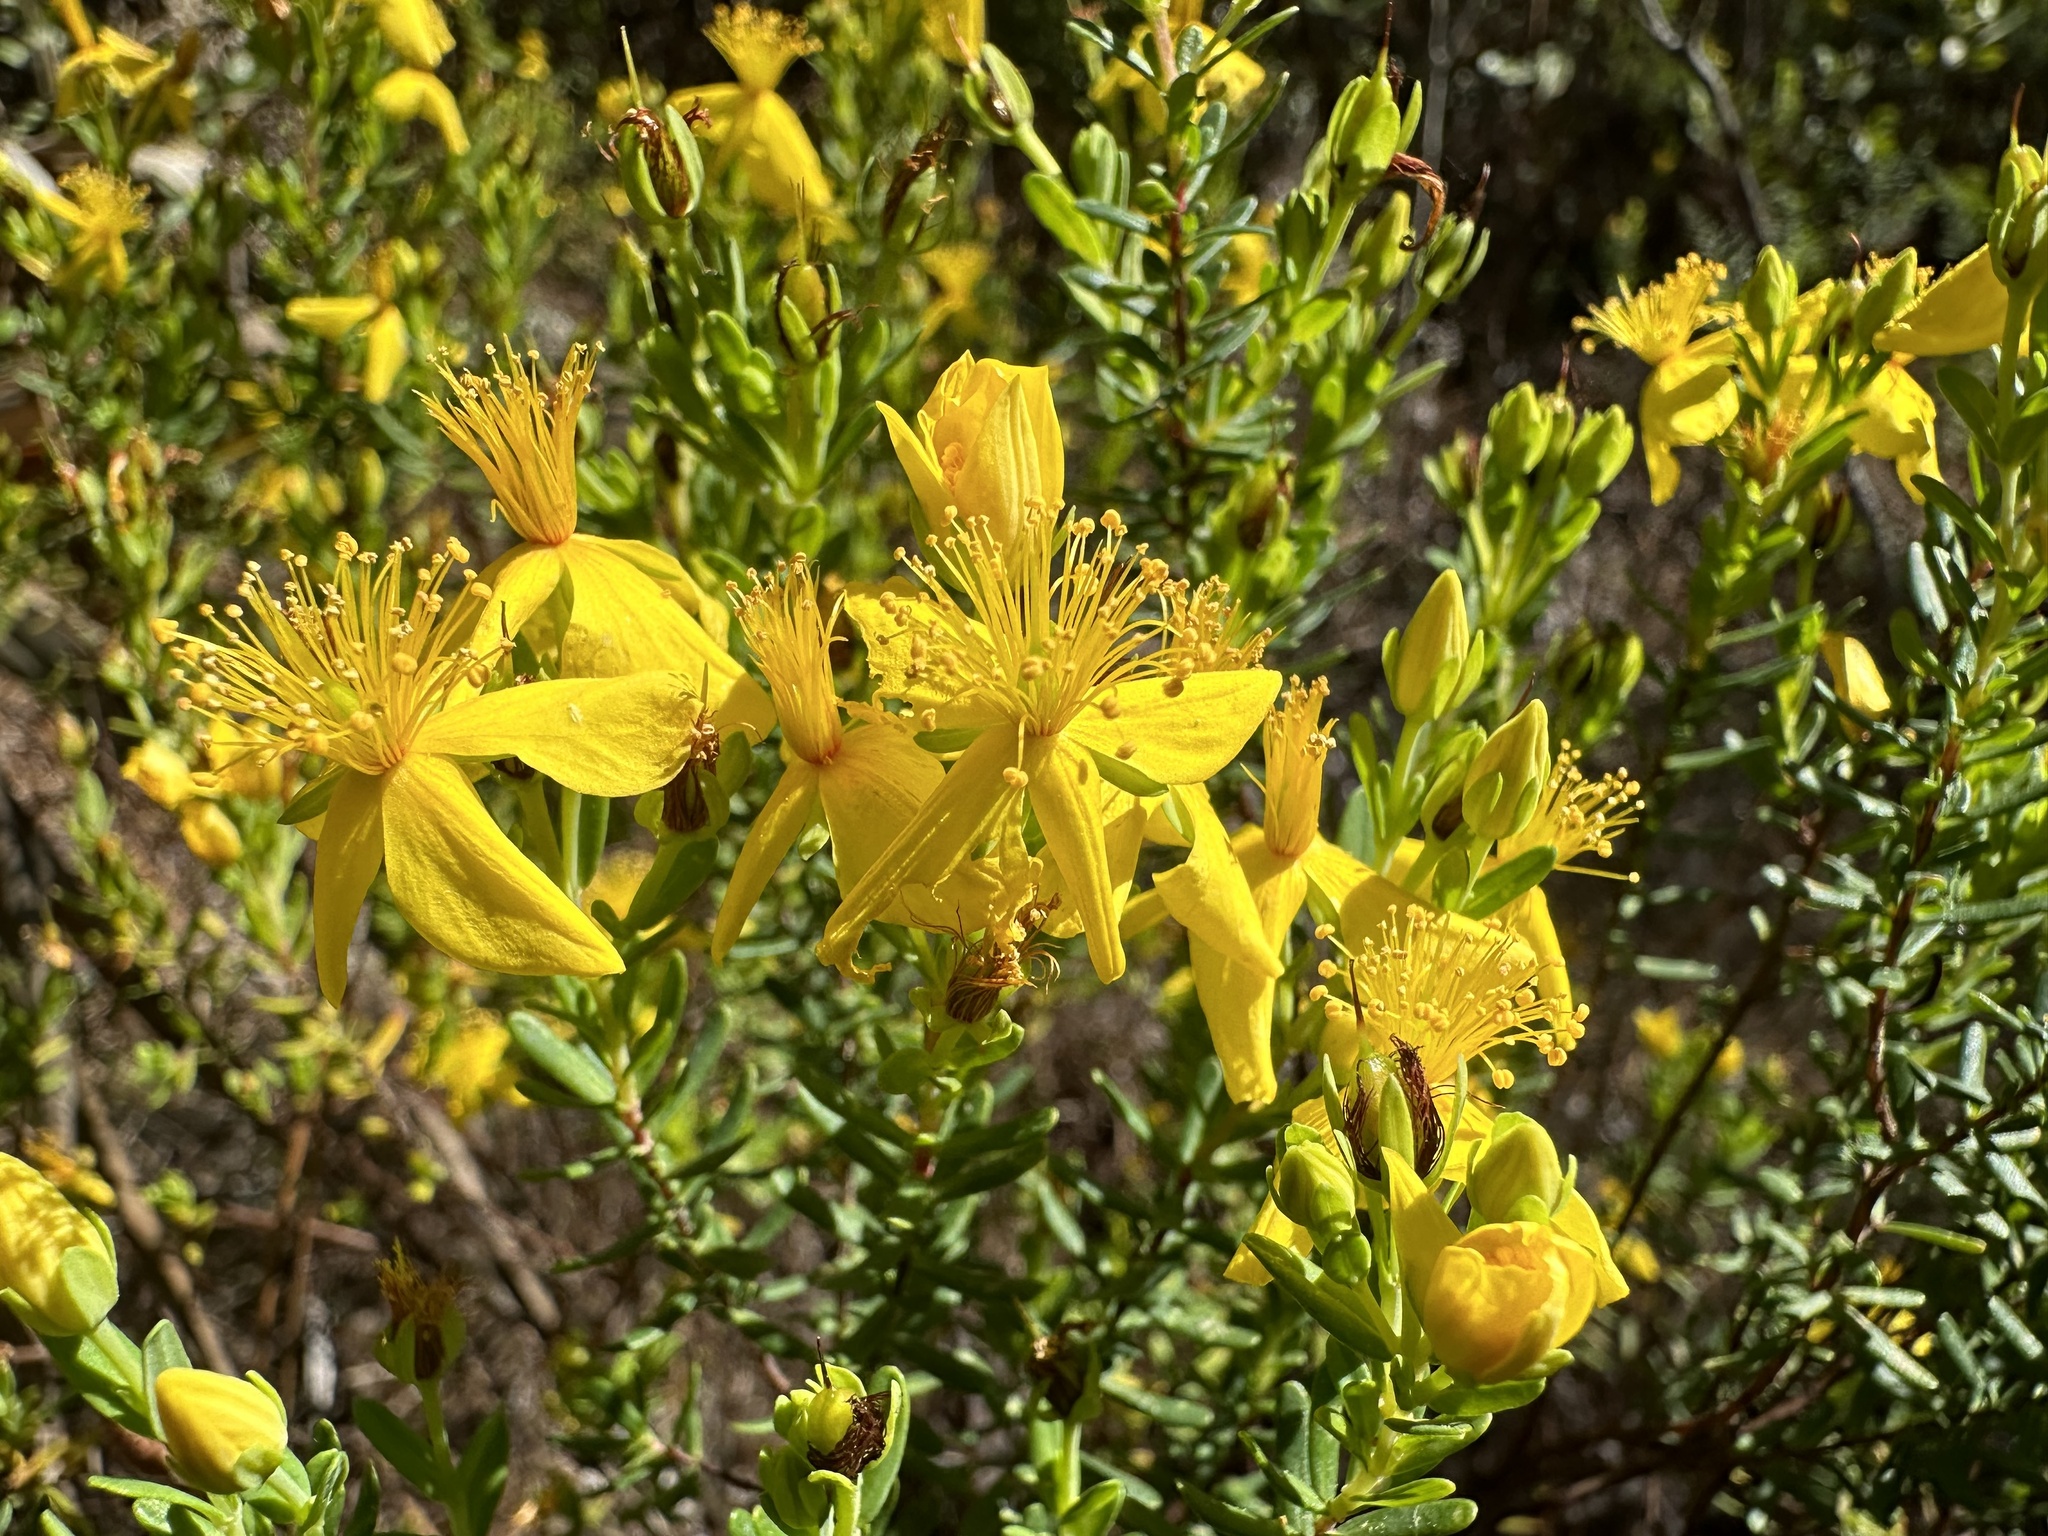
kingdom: Plantae
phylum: Tracheophyta
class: Magnoliopsida
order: Malpighiales
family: Hypericaceae
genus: Hypericum
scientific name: Hypericum microsepalum
